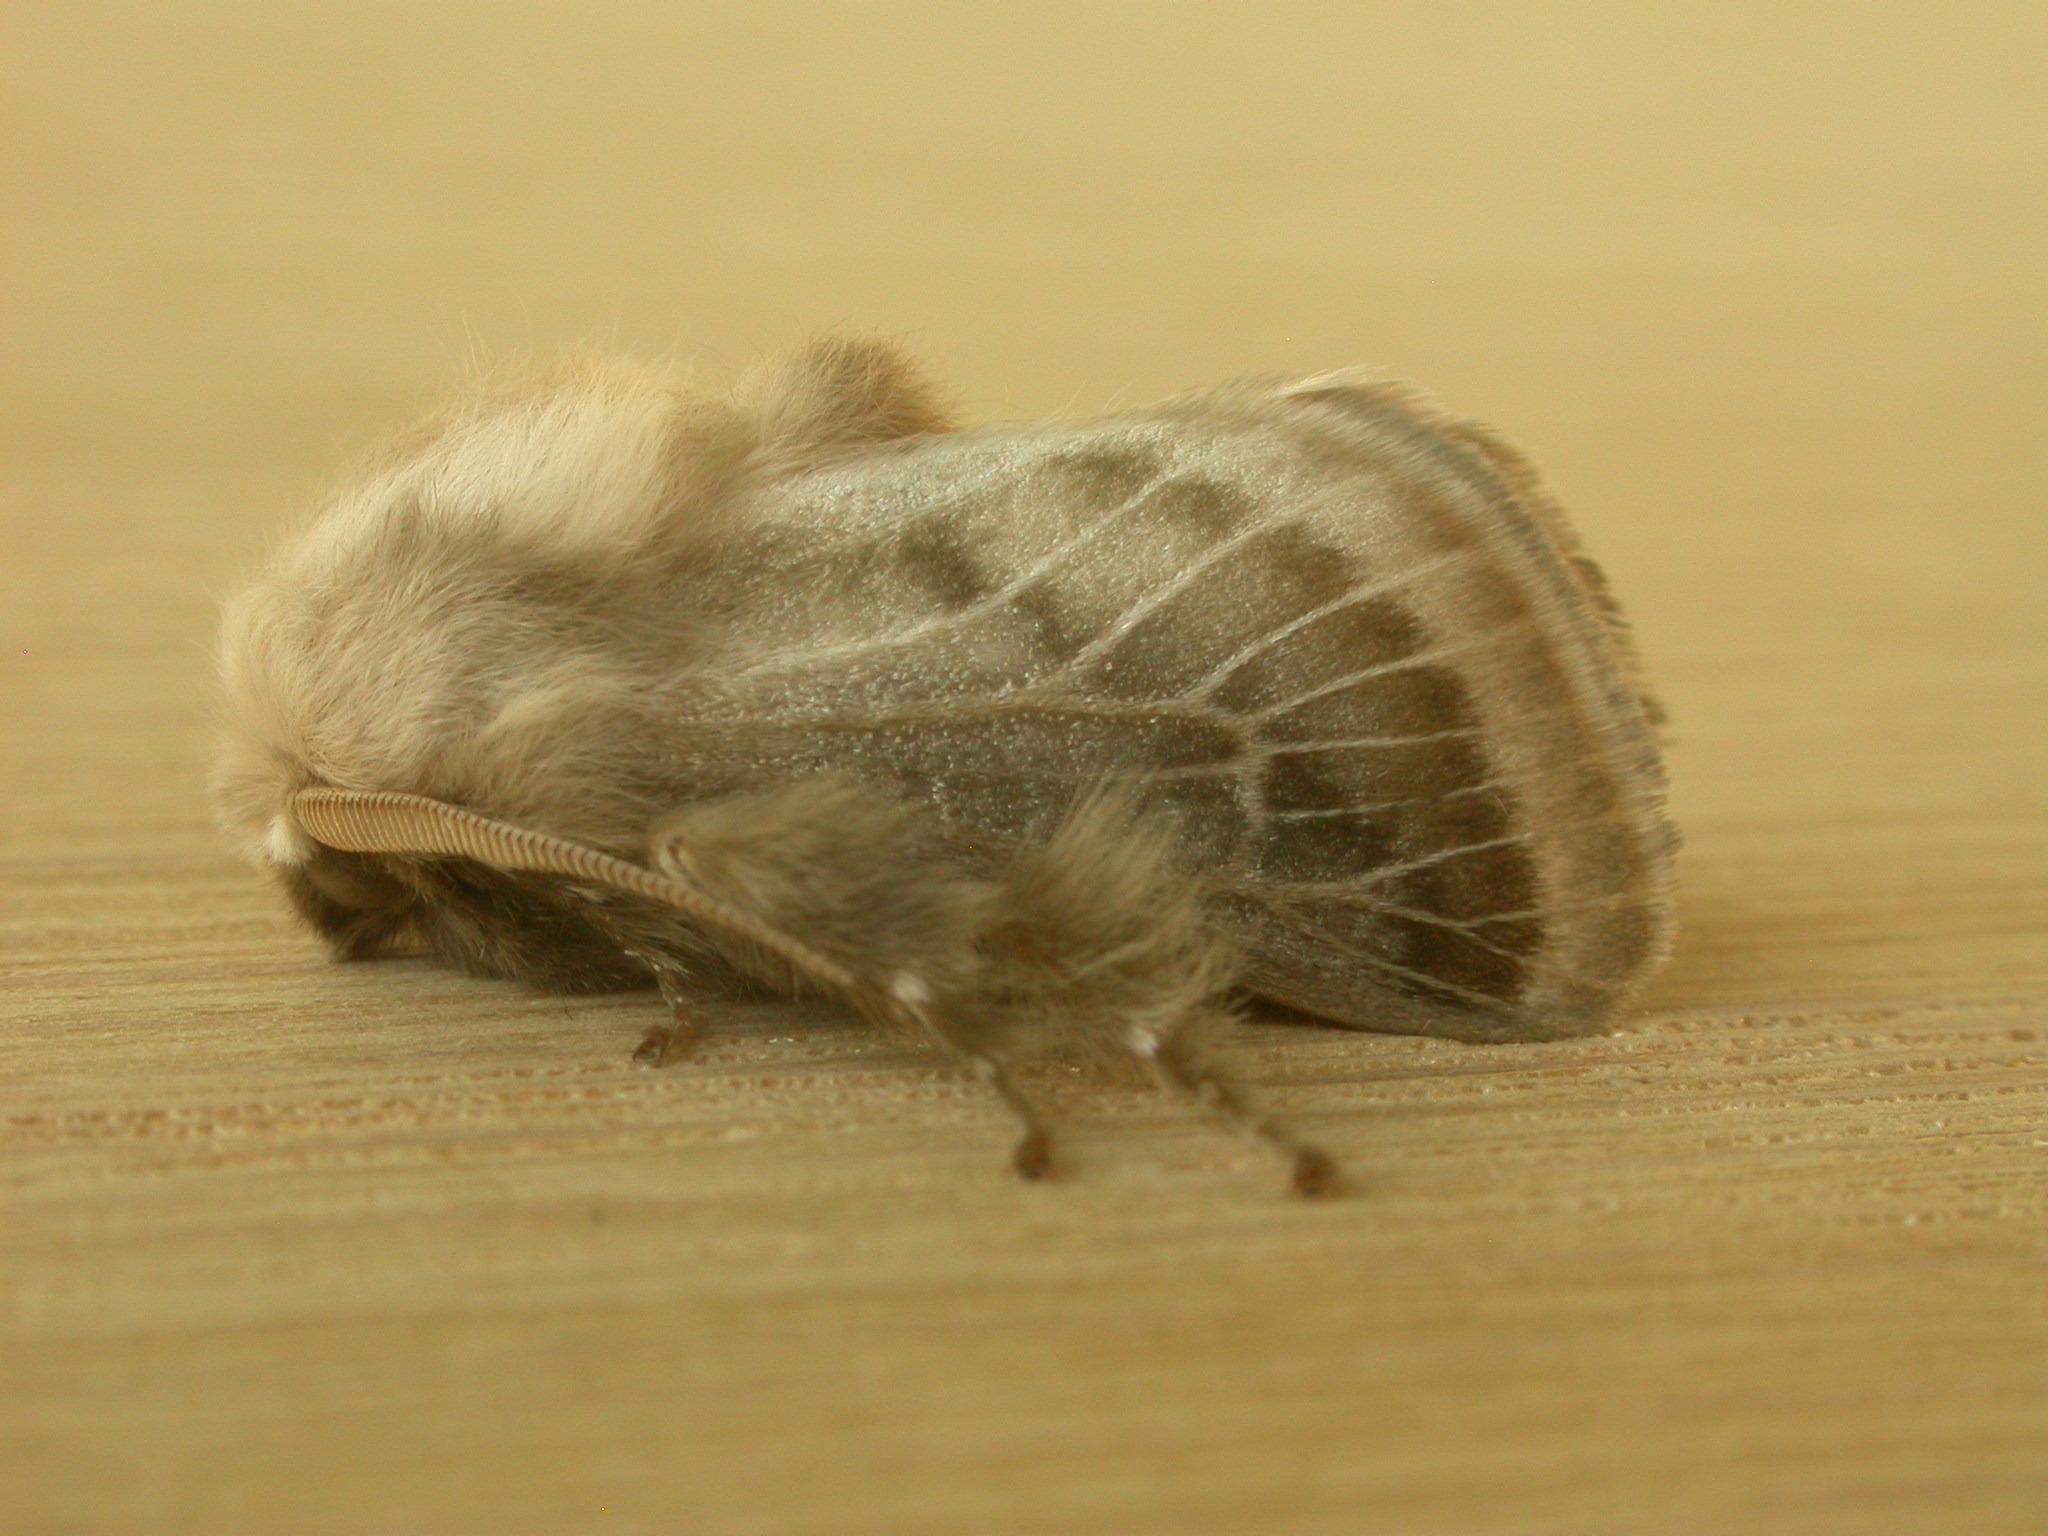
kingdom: Animalia
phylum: Arthropoda
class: Insecta
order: Lepidoptera
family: Limacodidae
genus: Doratifera
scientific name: Doratifera pinguis
